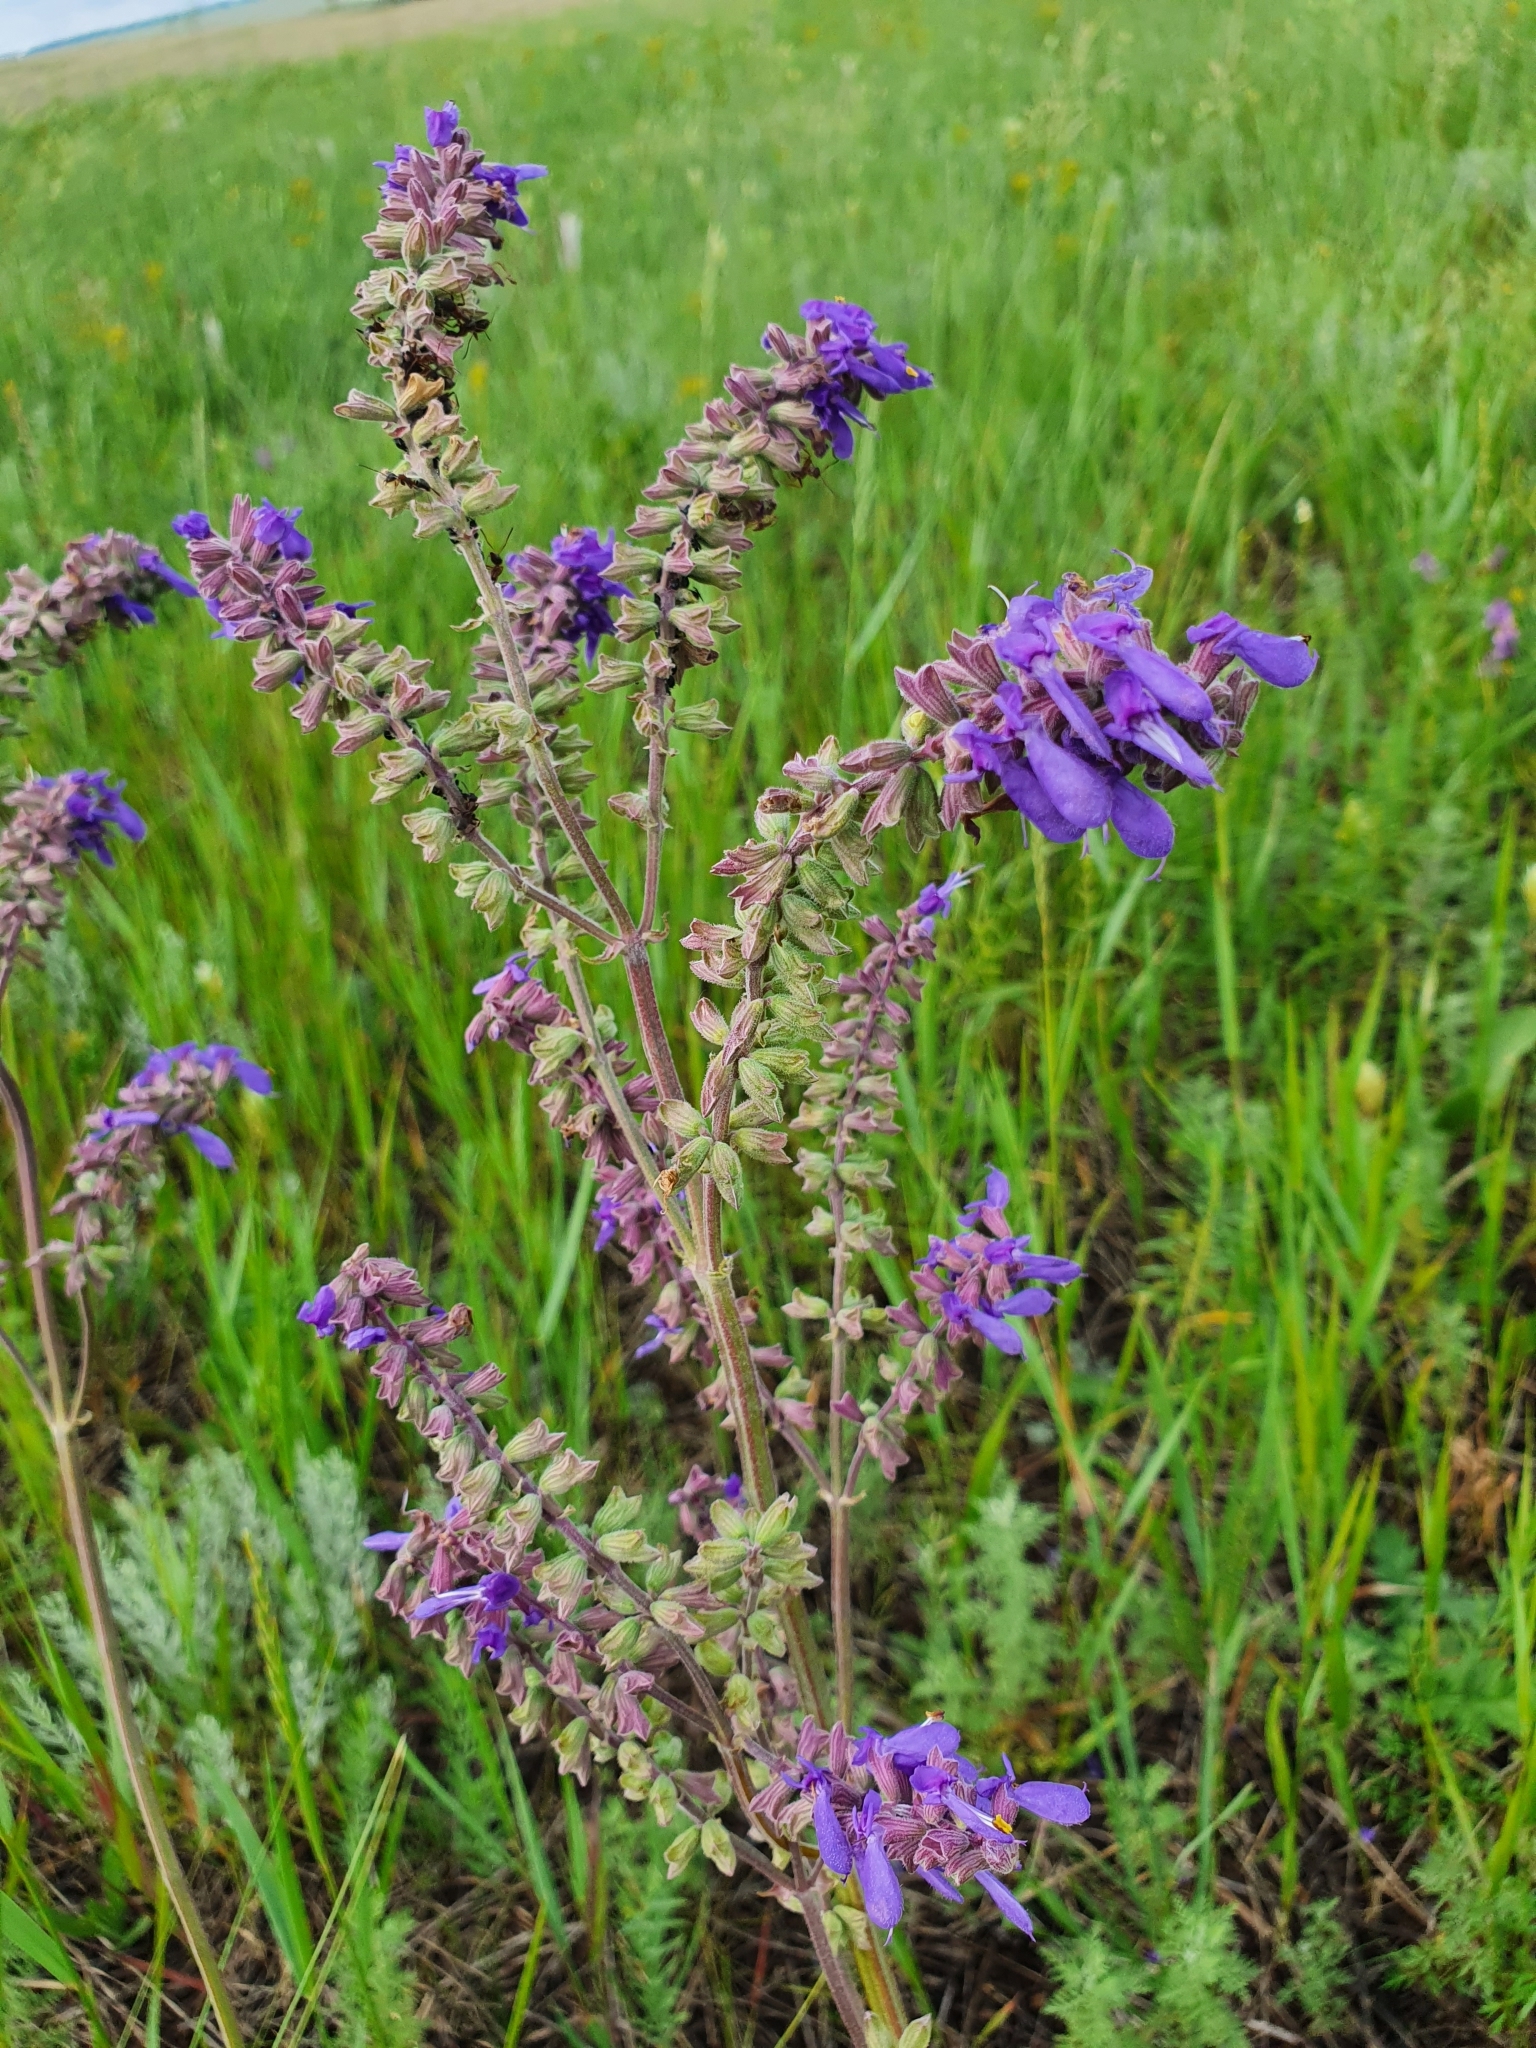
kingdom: Plantae
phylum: Tracheophyta
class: Magnoliopsida
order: Lamiales
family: Lamiaceae
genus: Salvia
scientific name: Salvia nutans
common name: Nodding sage
